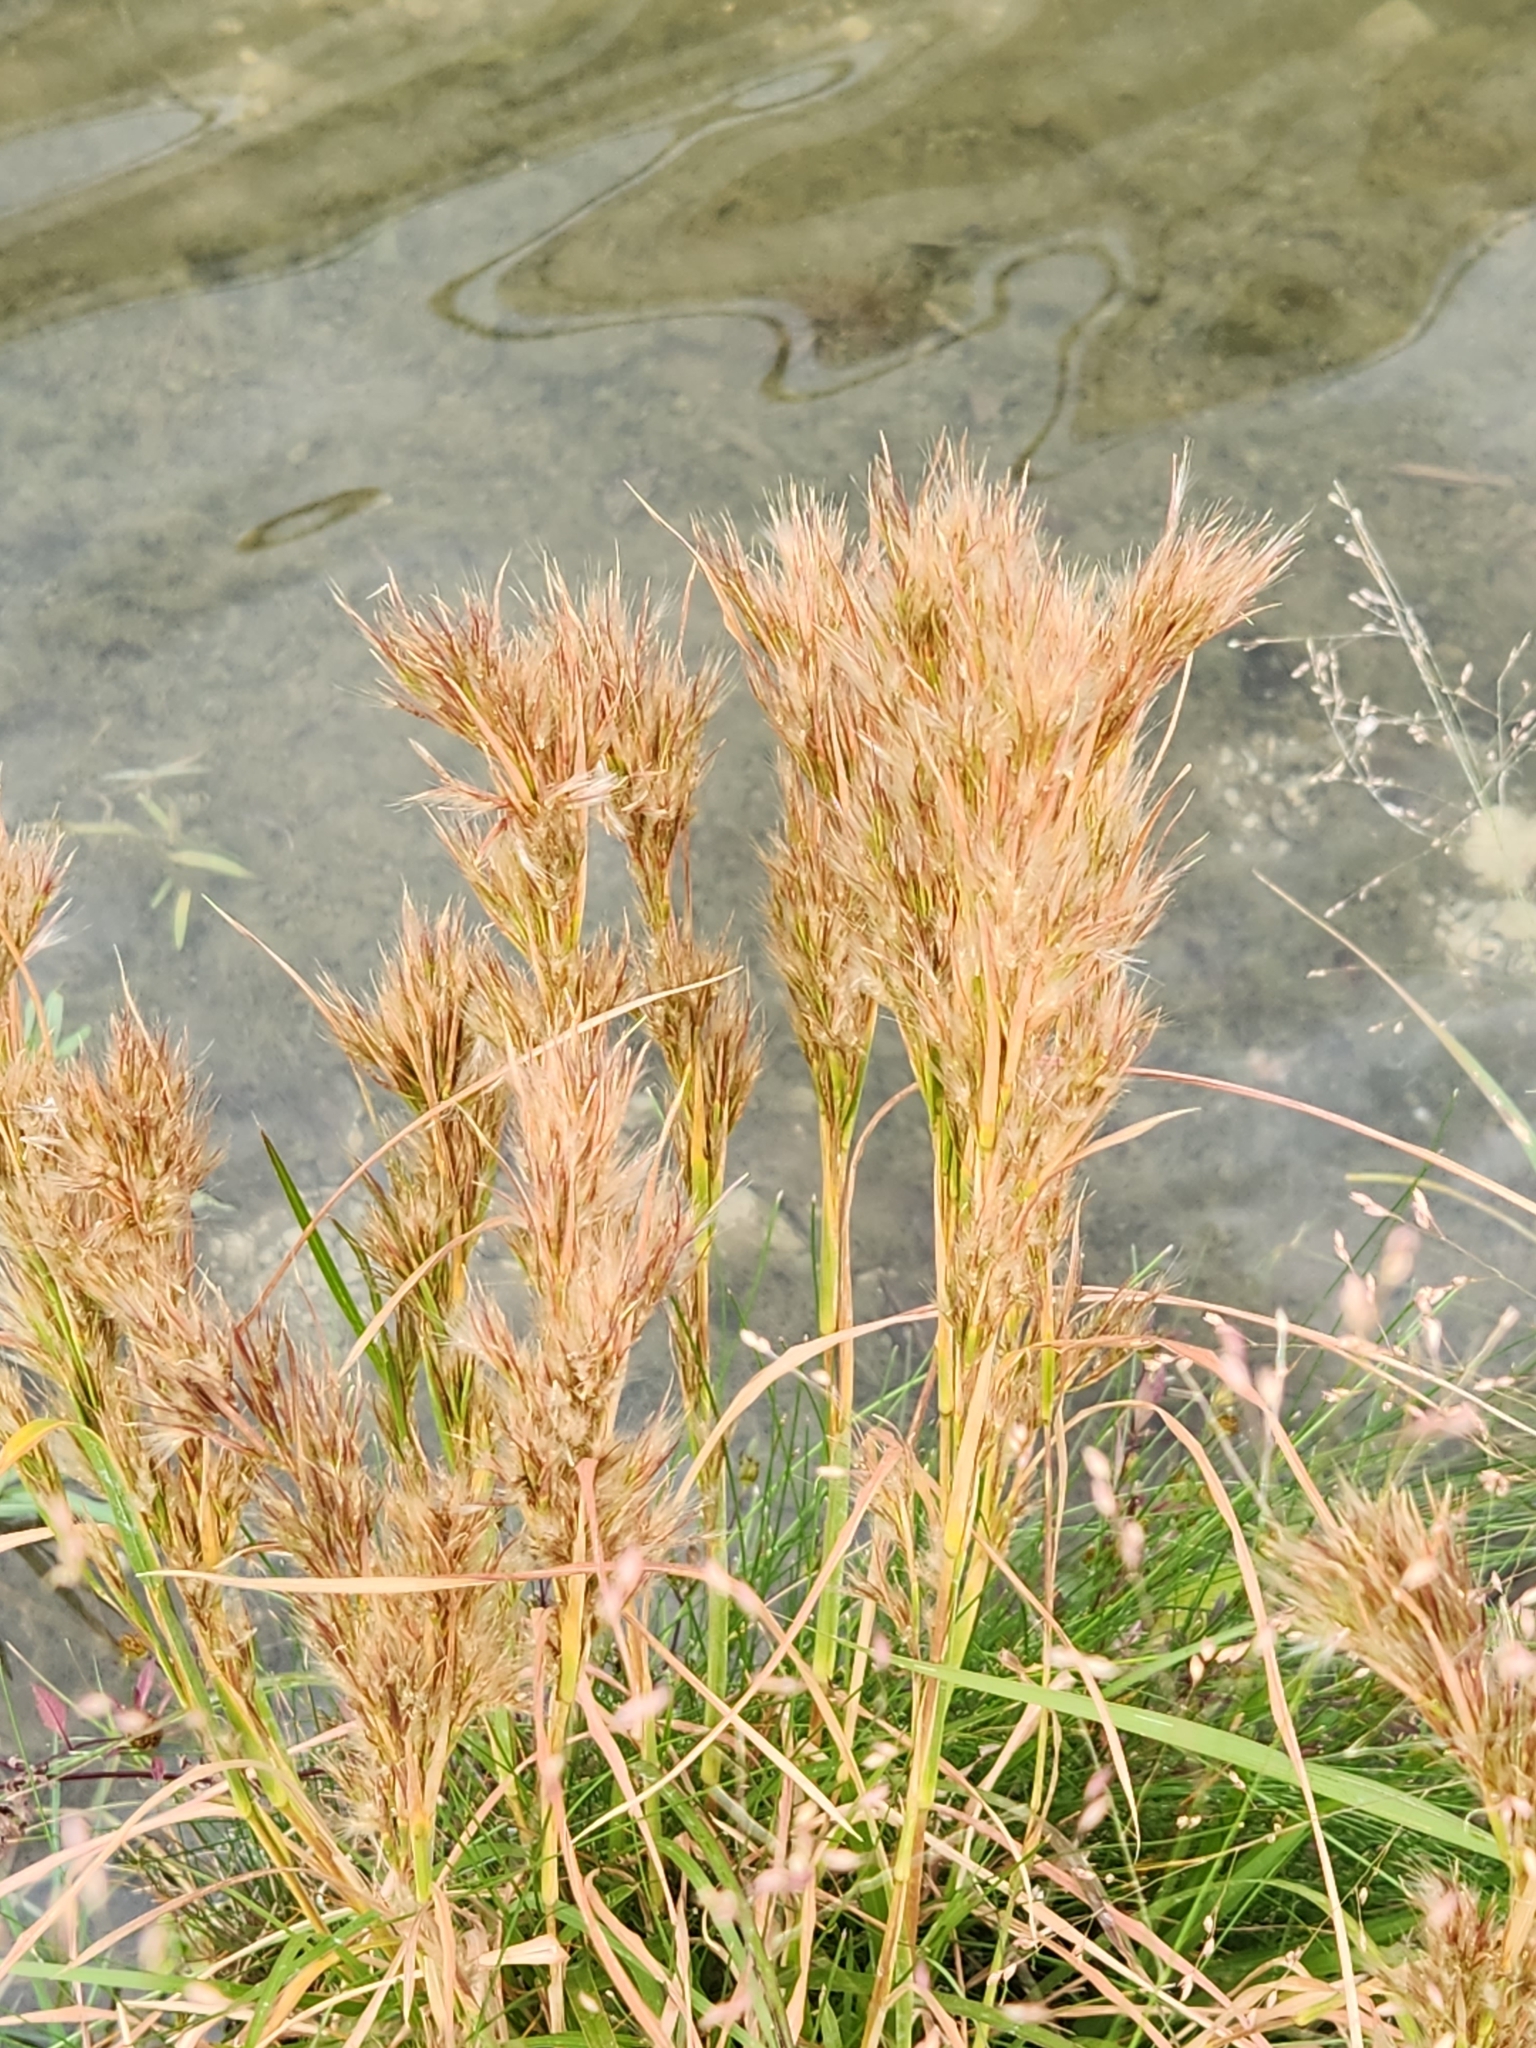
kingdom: Plantae
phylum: Tracheophyta
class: Liliopsida
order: Poales
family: Poaceae
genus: Andropogon
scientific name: Andropogon tenuispatheus
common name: Bushy bluestem
